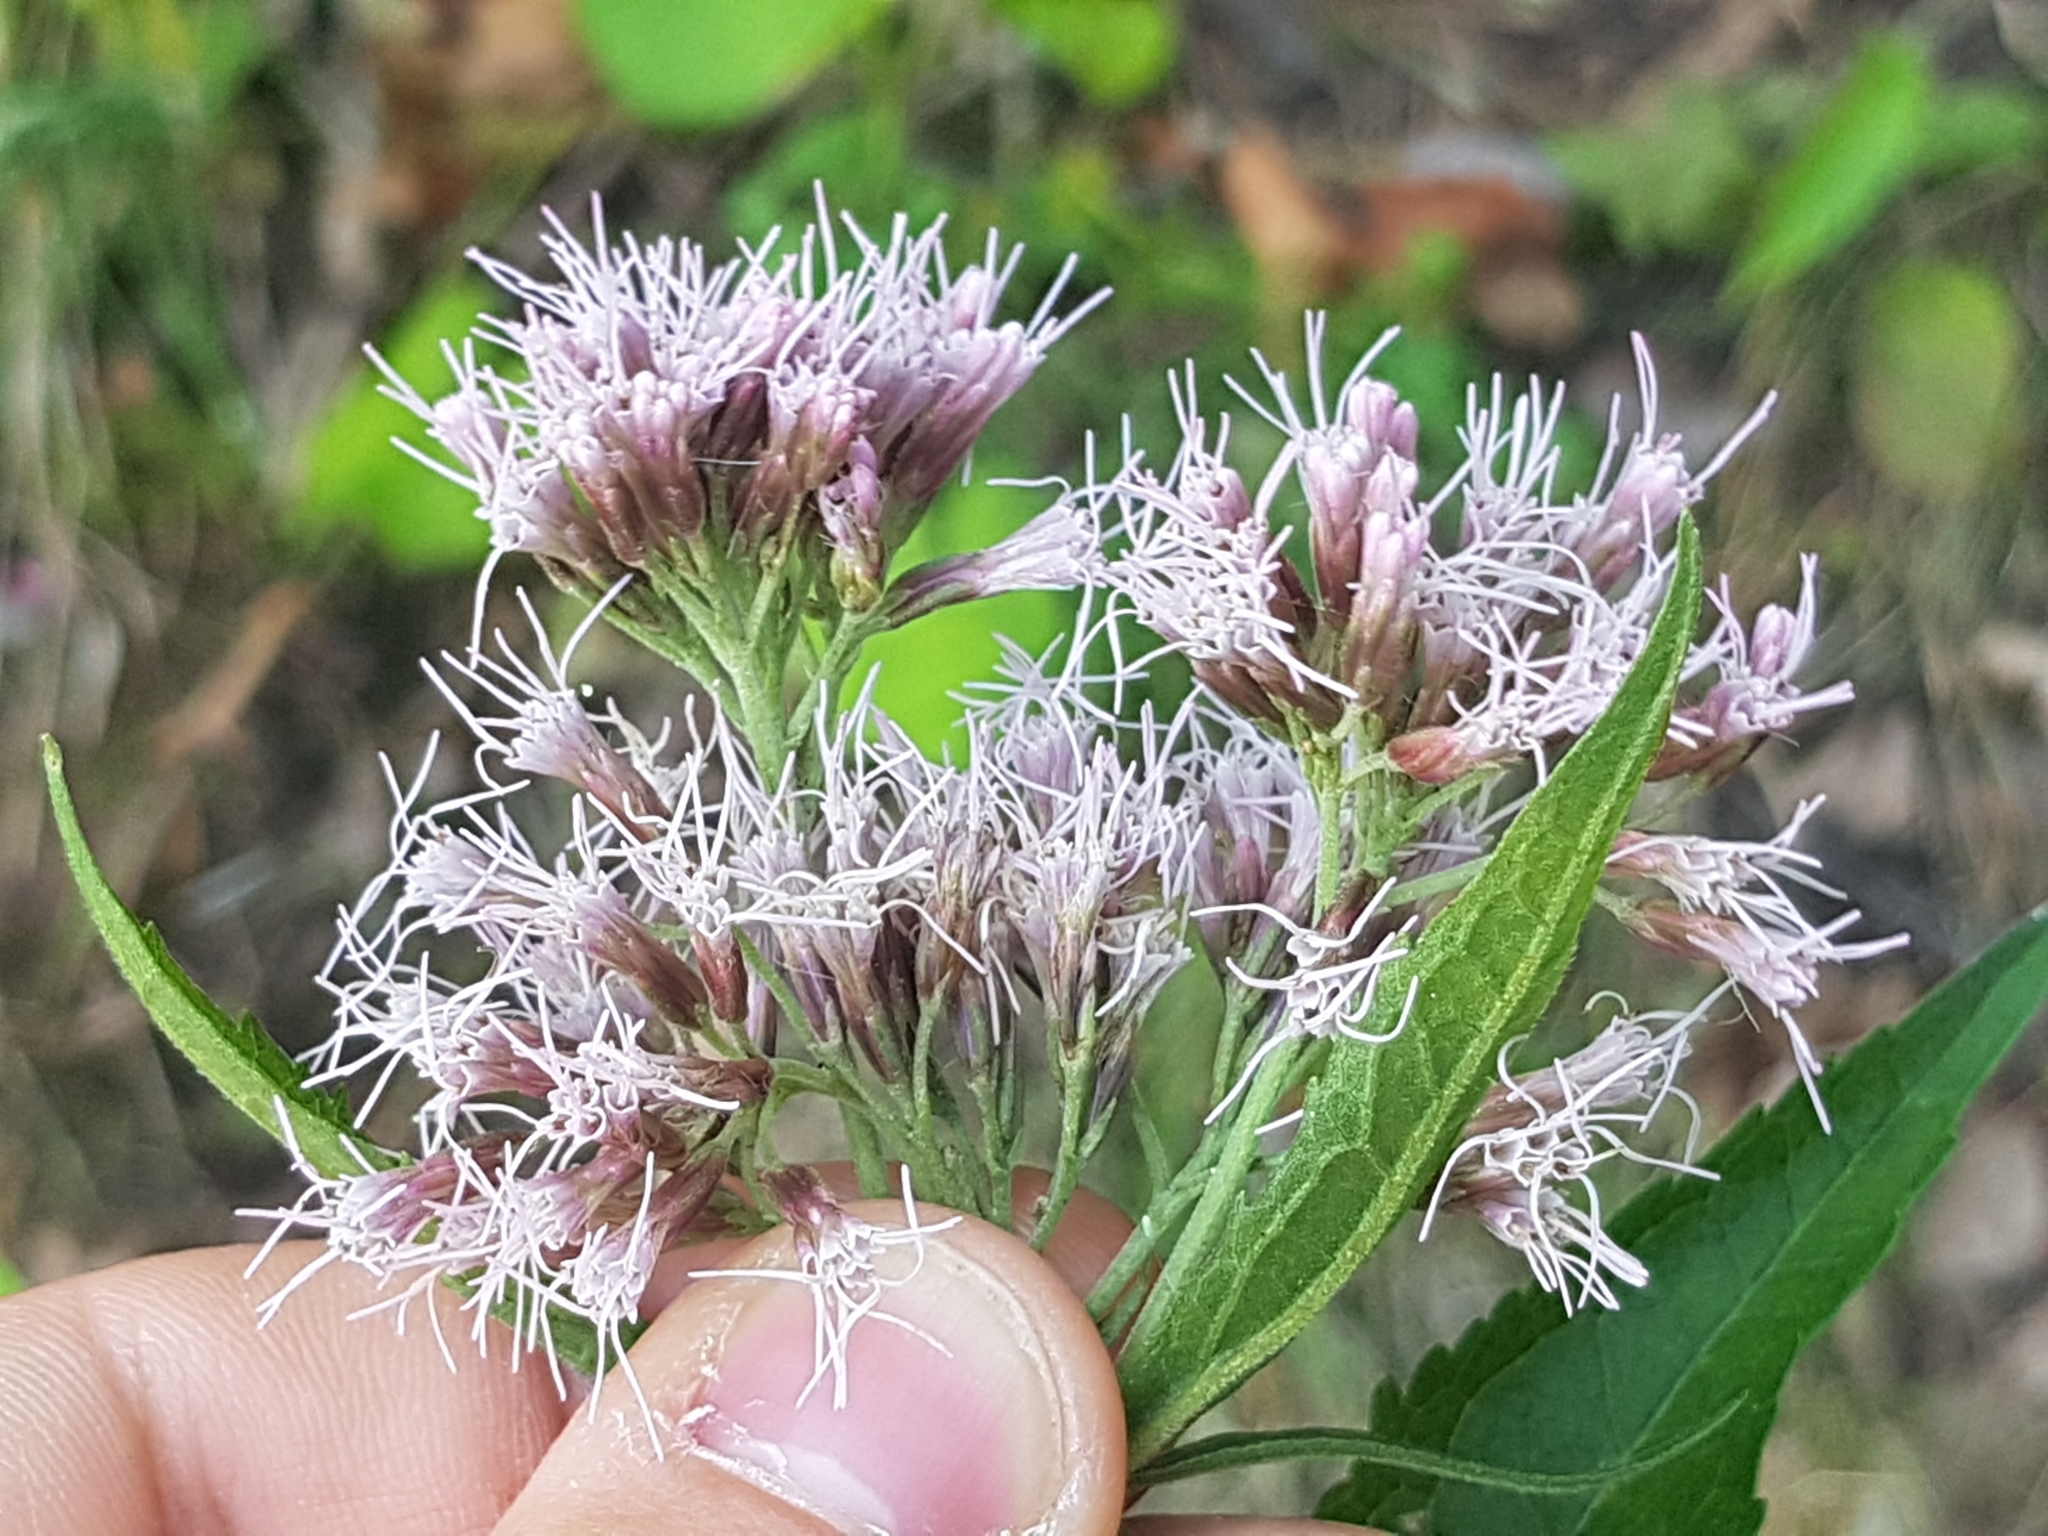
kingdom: Plantae
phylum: Tracheophyta
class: Magnoliopsida
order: Asterales
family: Asteraceae
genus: Eupatorium
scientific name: Eupatorium cannabinum
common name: Hemp-agrimony
